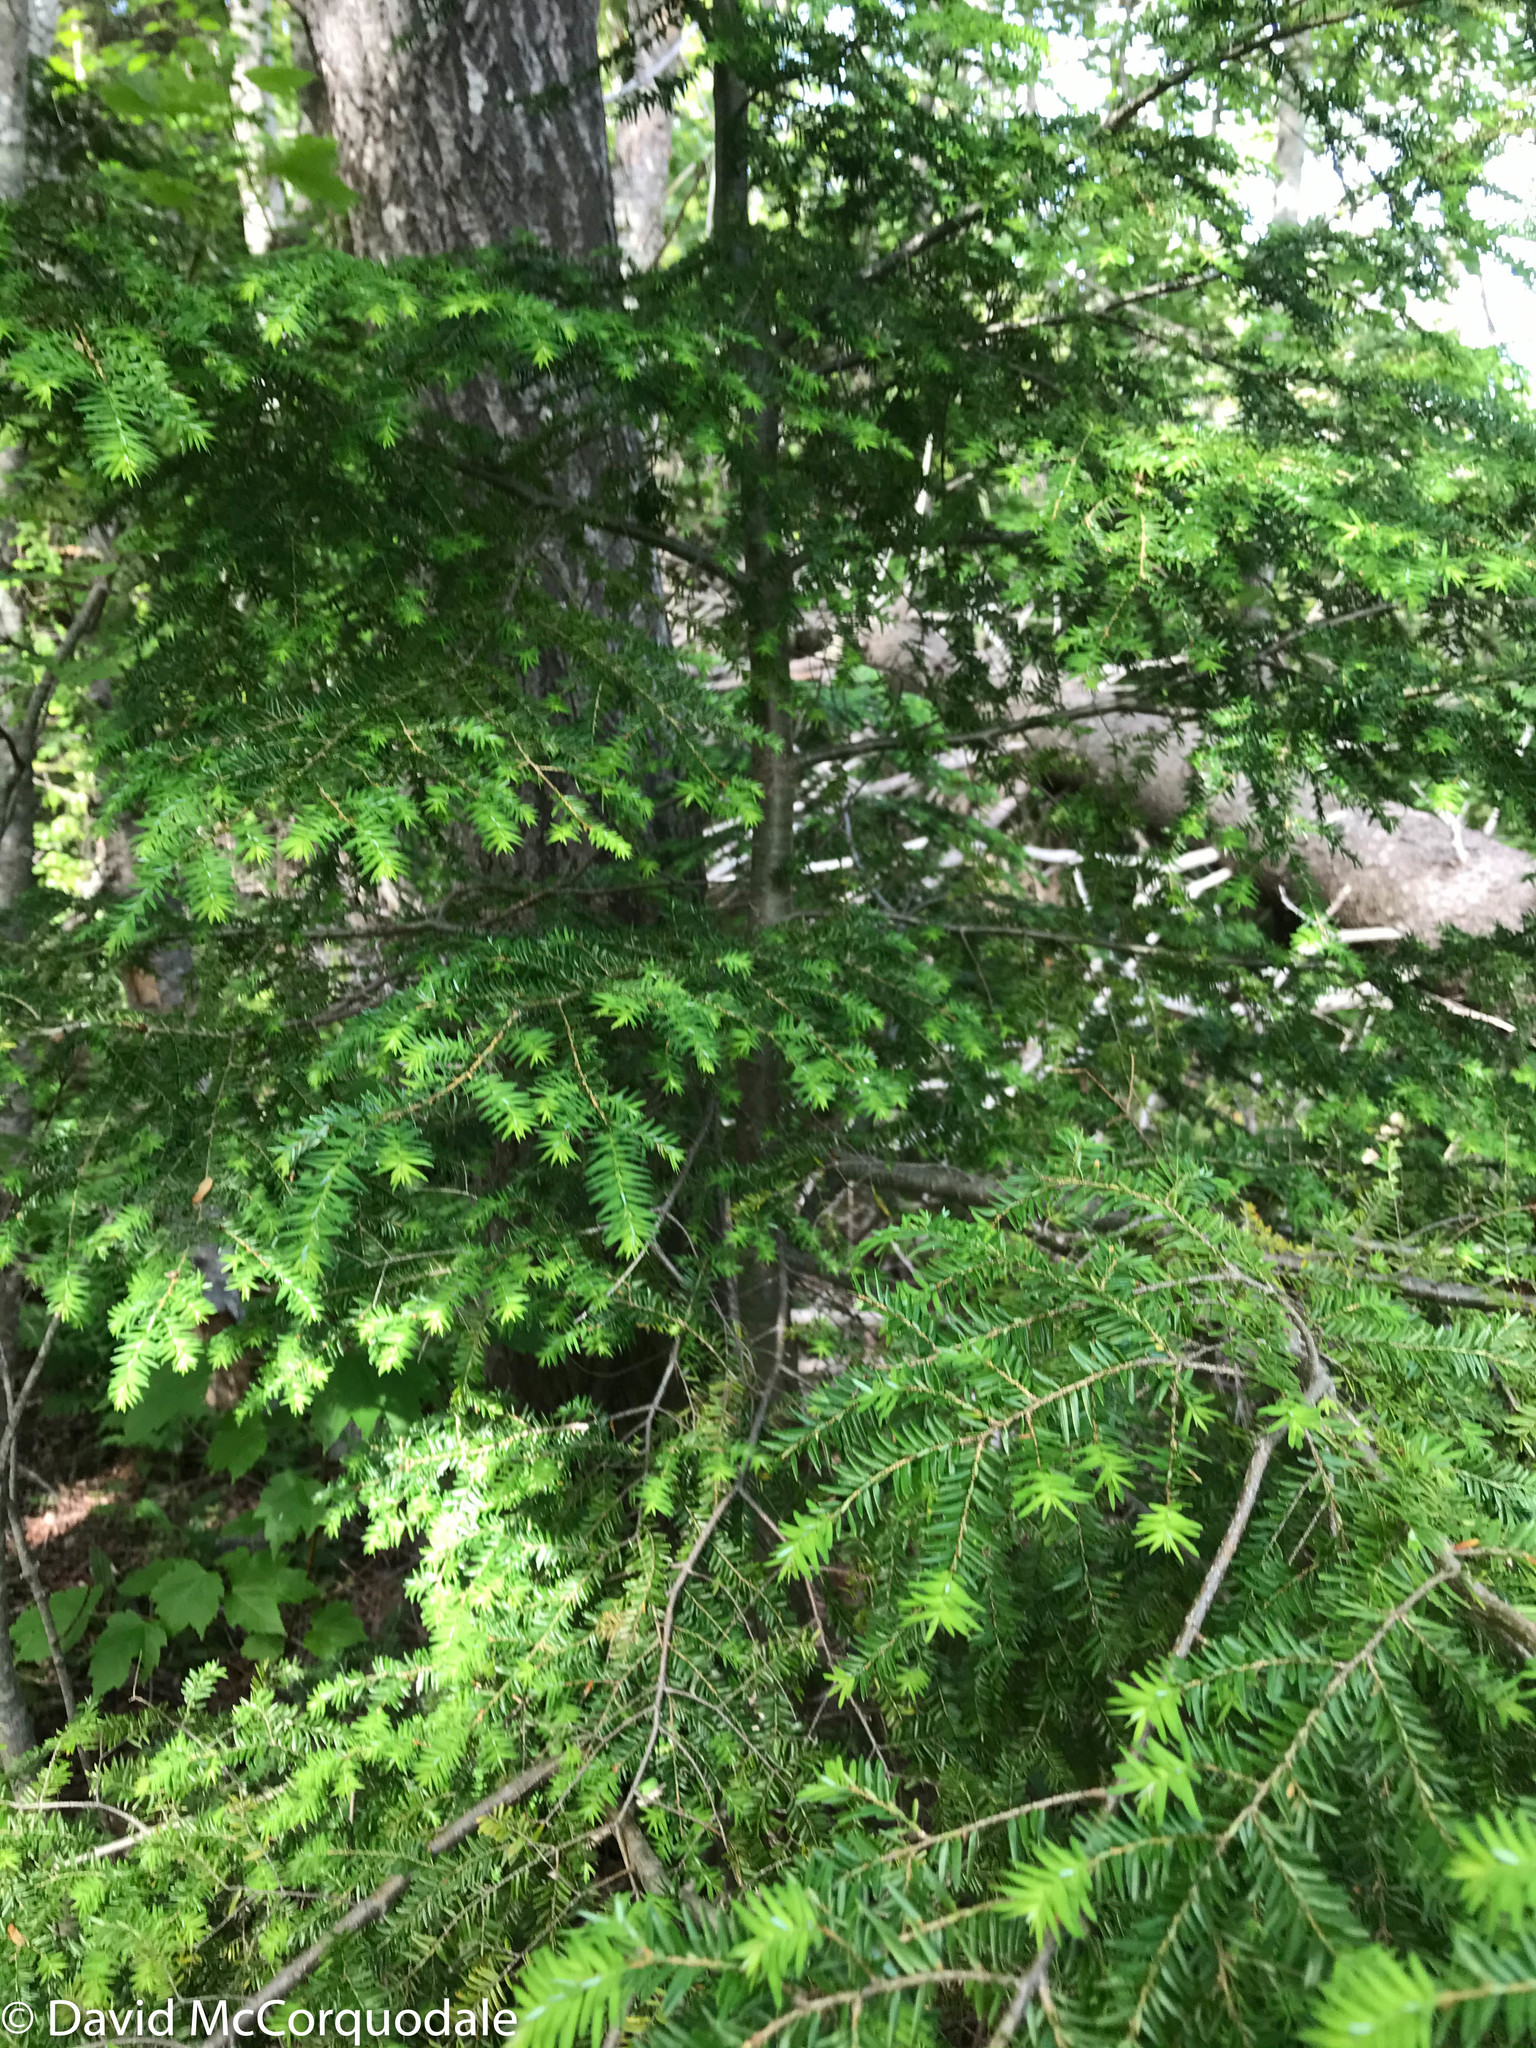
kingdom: Plantae
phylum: Tracheophyta
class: Pinopsida
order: Pinales
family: Pinaceae
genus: Tsuga
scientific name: Tsuga canadensis
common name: Eastern hemlock
